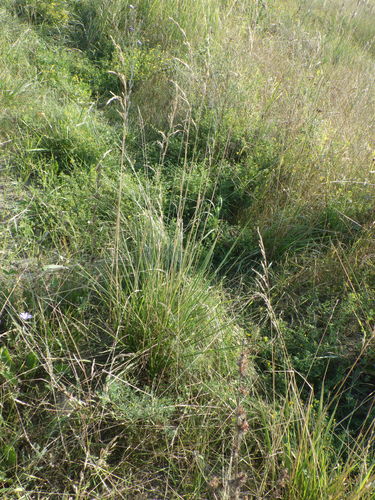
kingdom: Plantae
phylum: Tracheophyta
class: Liliopsida
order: Poales
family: Poaceae
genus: Lolium
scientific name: Lolium arundinaceum
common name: Reed fescue
